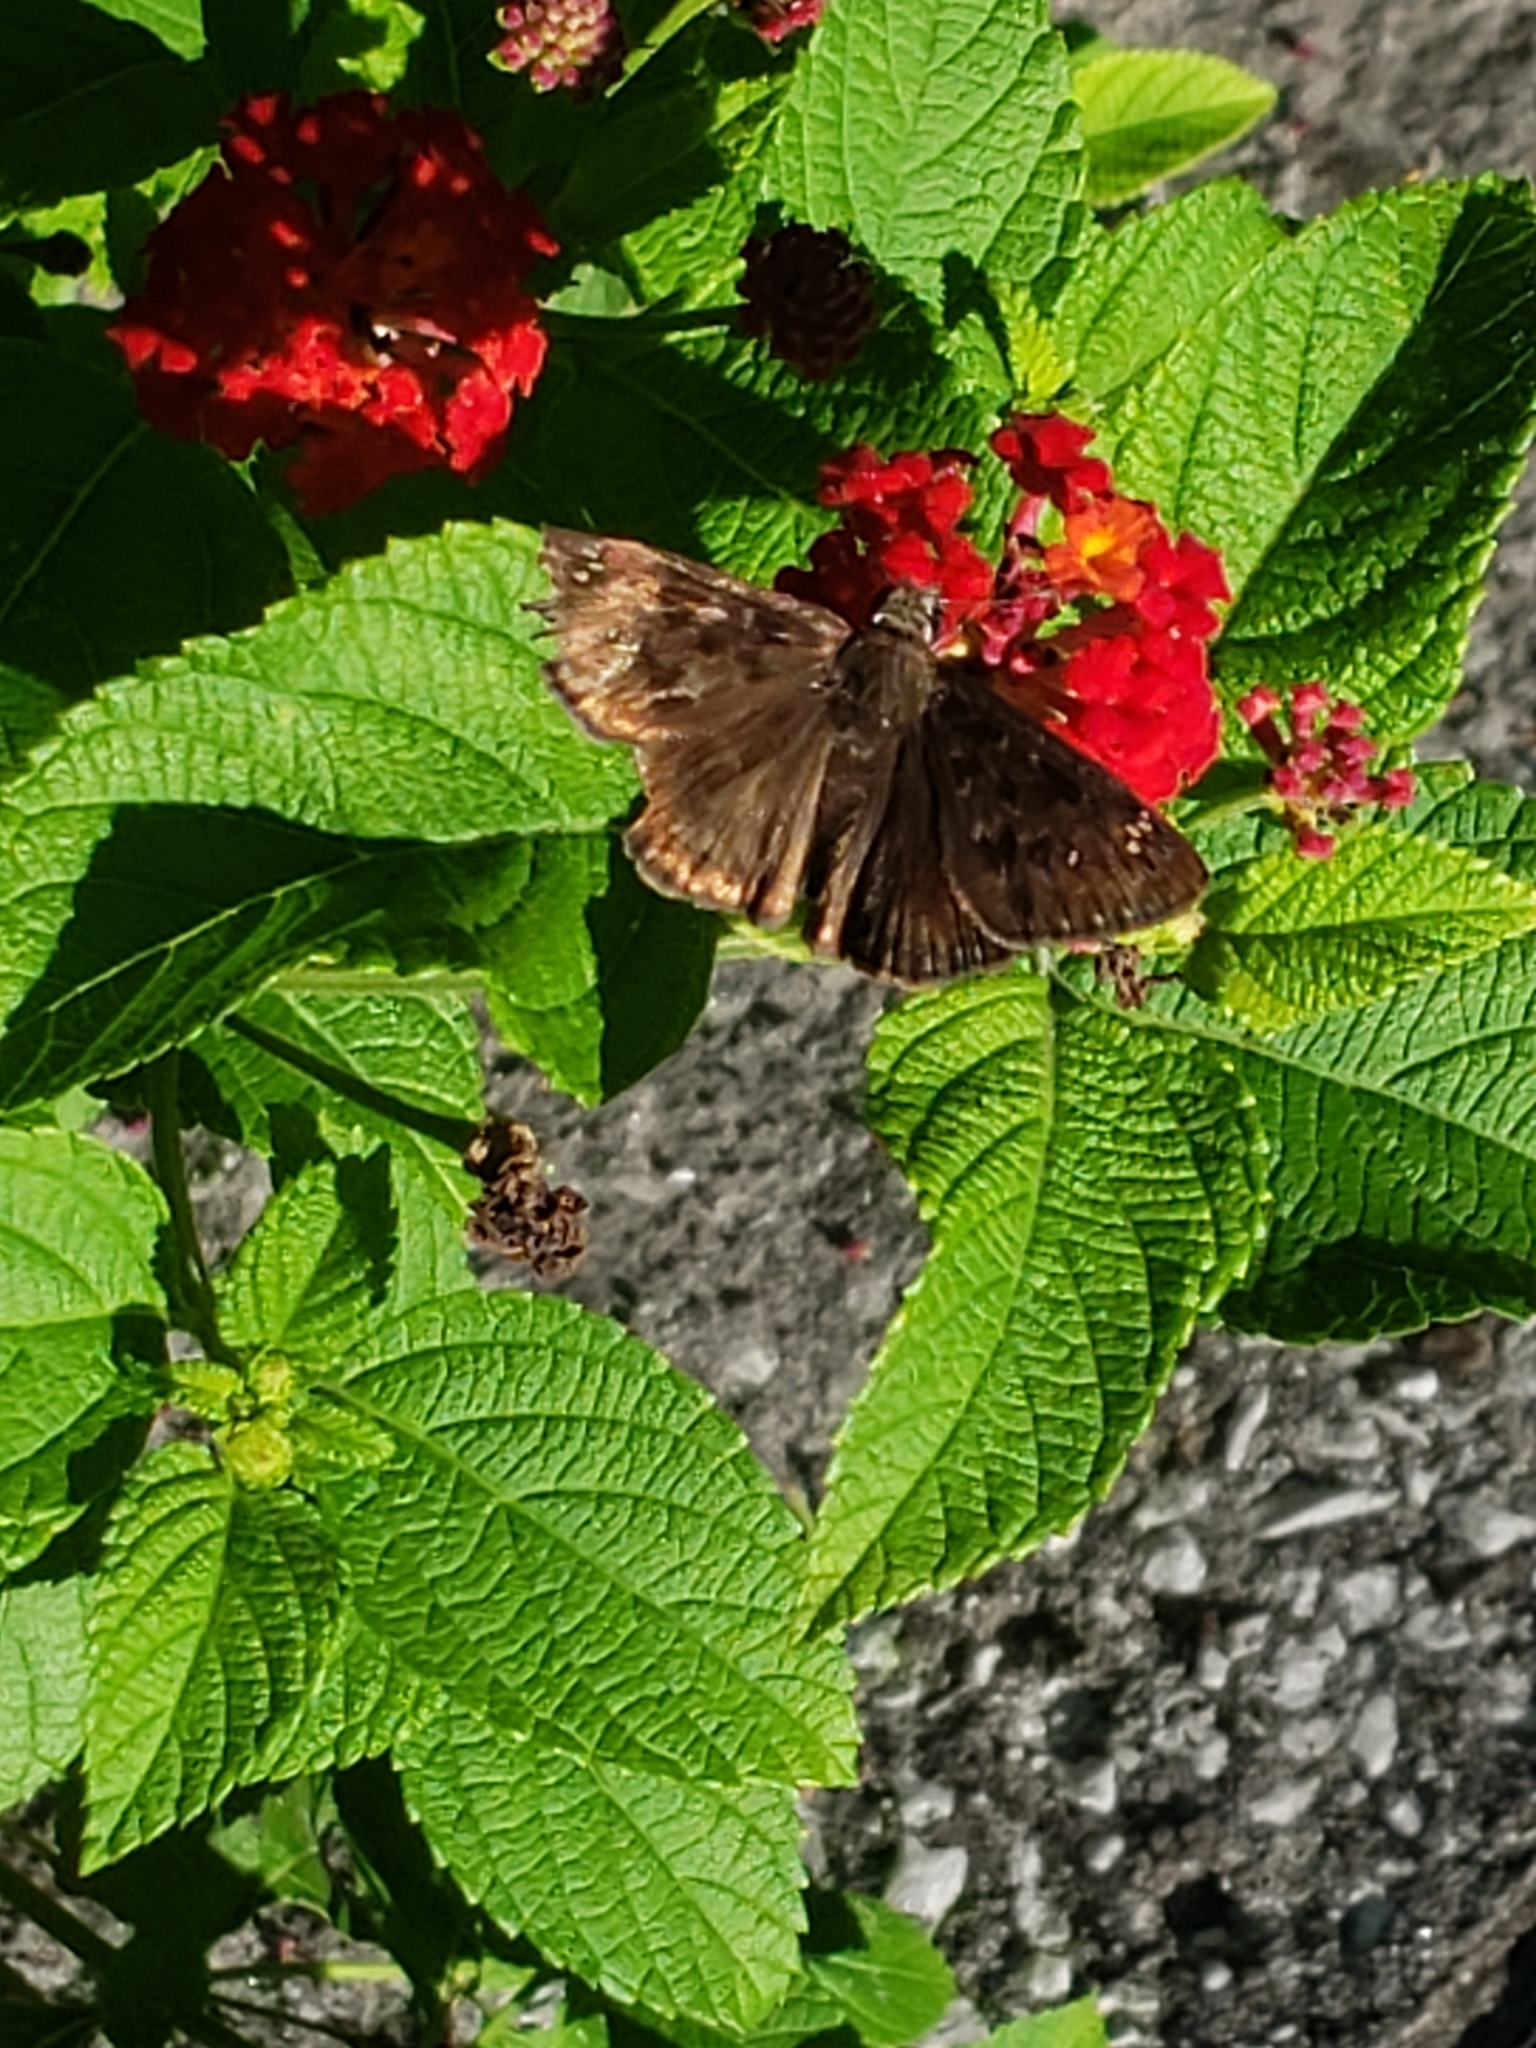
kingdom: Animalia
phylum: Arthropoda
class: Insecta
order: Lepidoptera
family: Hesperiidae
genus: Erynnis
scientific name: Erynnis horatius
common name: Horace's duskywing
